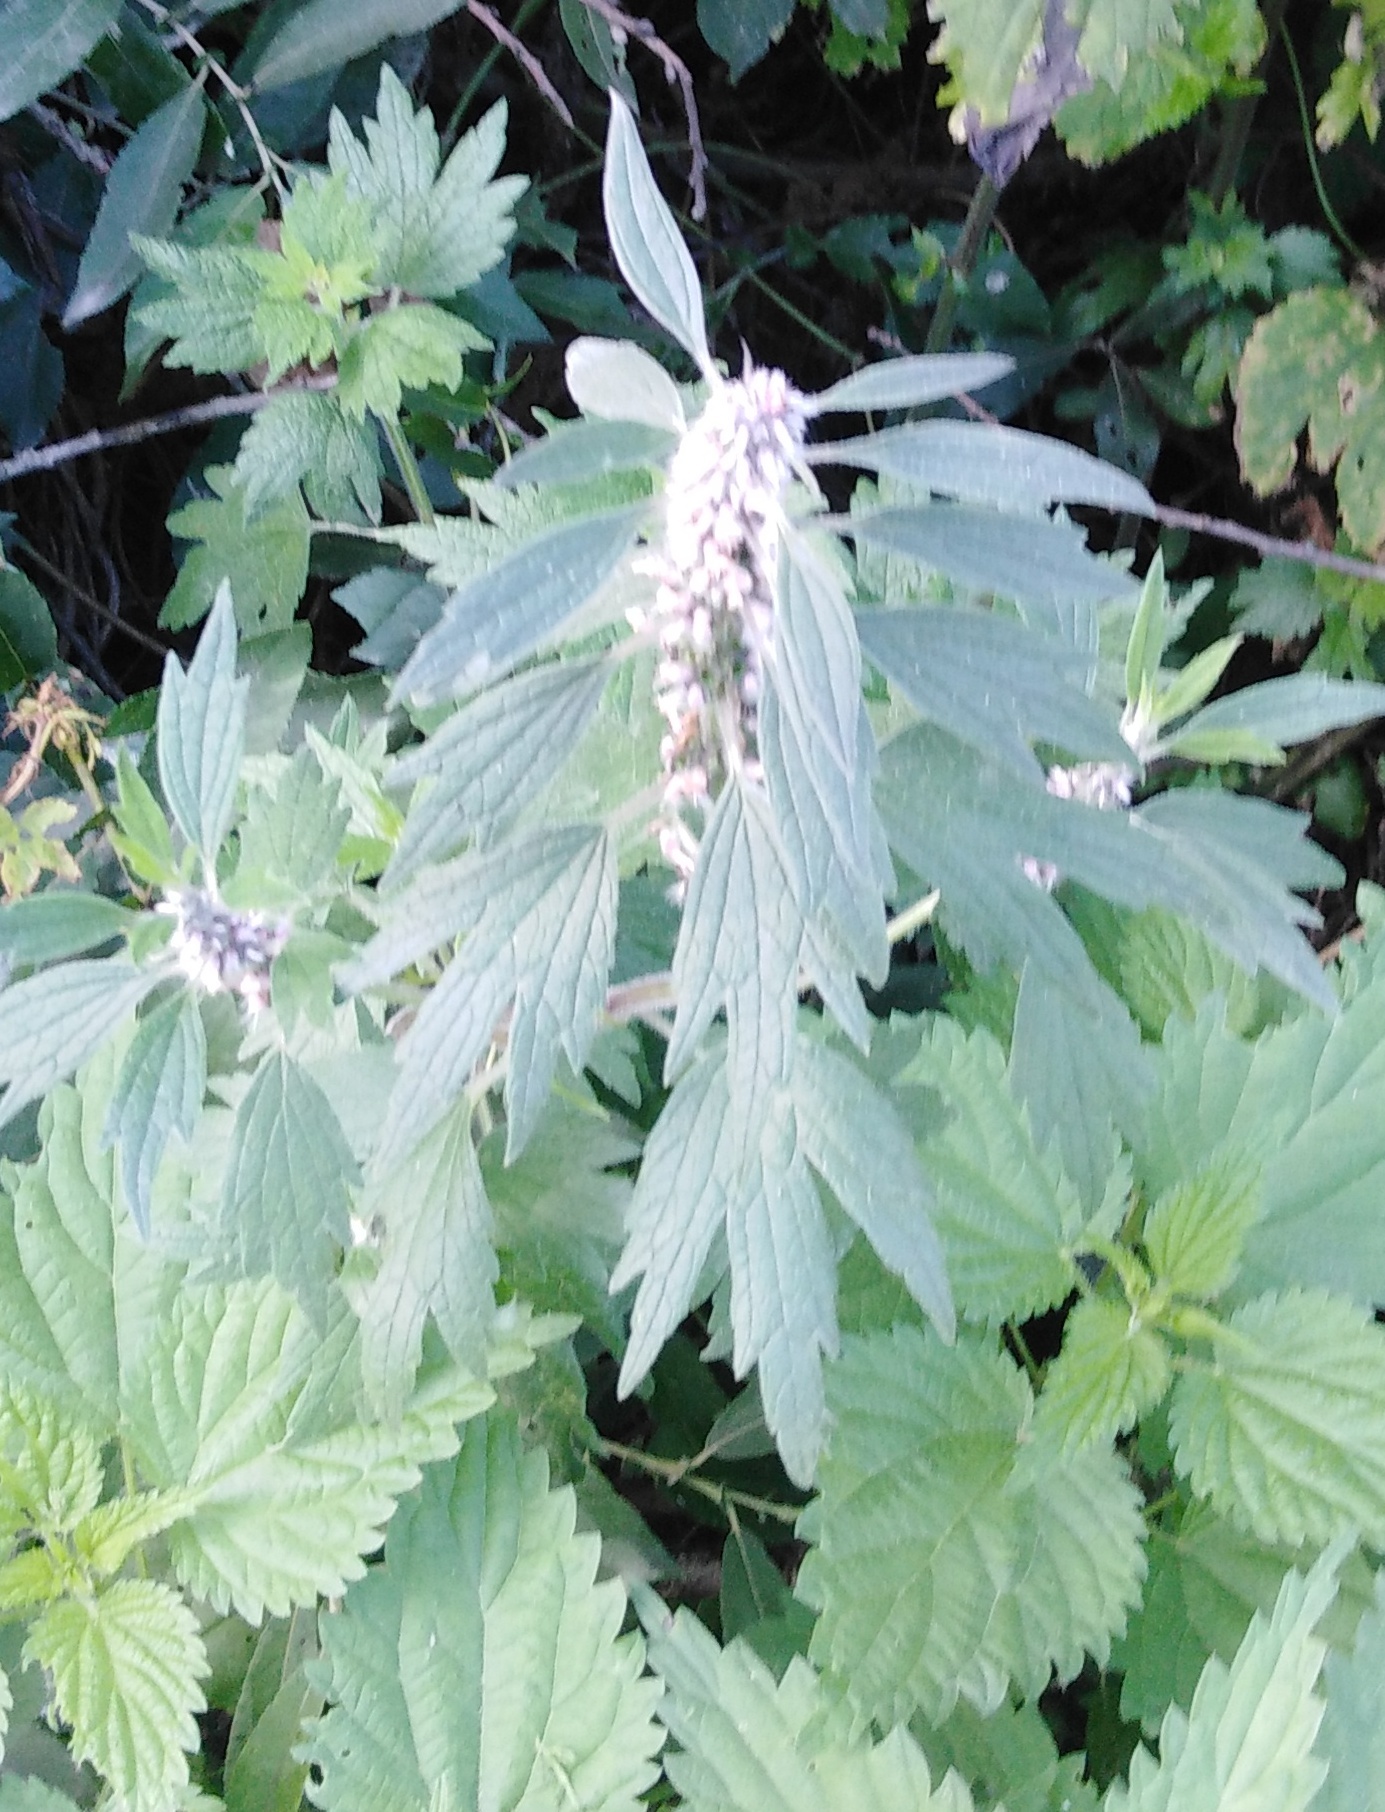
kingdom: Plantae
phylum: Tracheophyta
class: Magnoliopsida
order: Lamiales
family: Lamiaceae
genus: Leonurus
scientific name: Leonurus quinquelobatus
